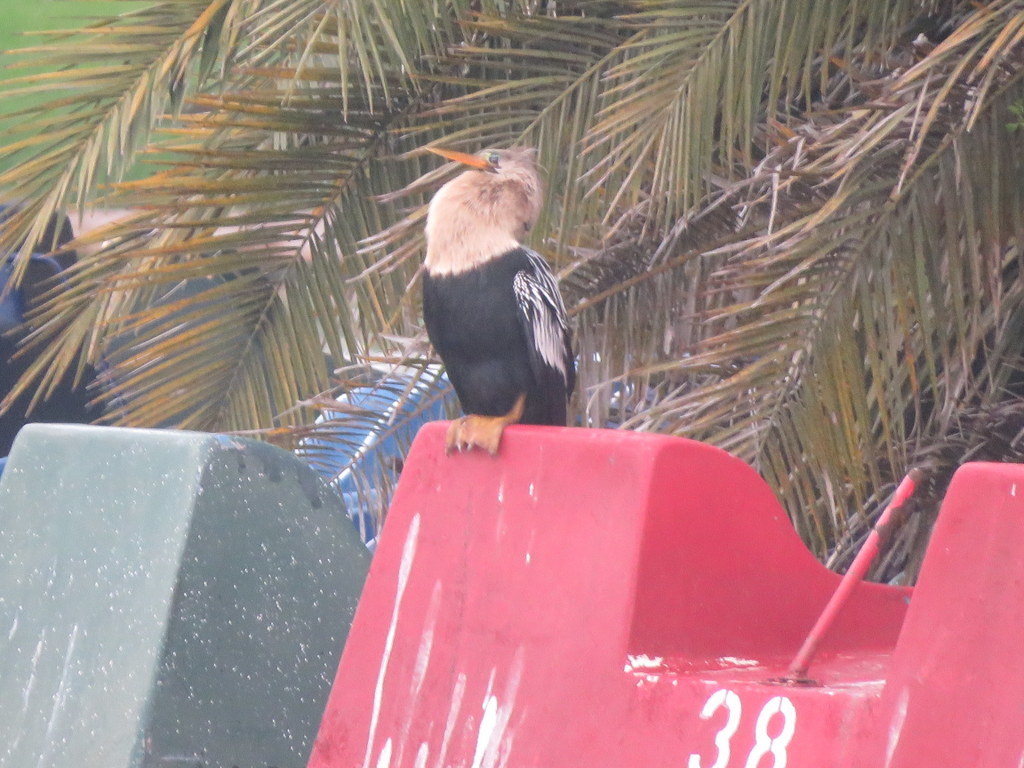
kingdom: Animalia
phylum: Chordata
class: Aves
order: Suliformes
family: Anhingidae
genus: Anhinga
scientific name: Anhinga anhinga
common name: Anhinga
